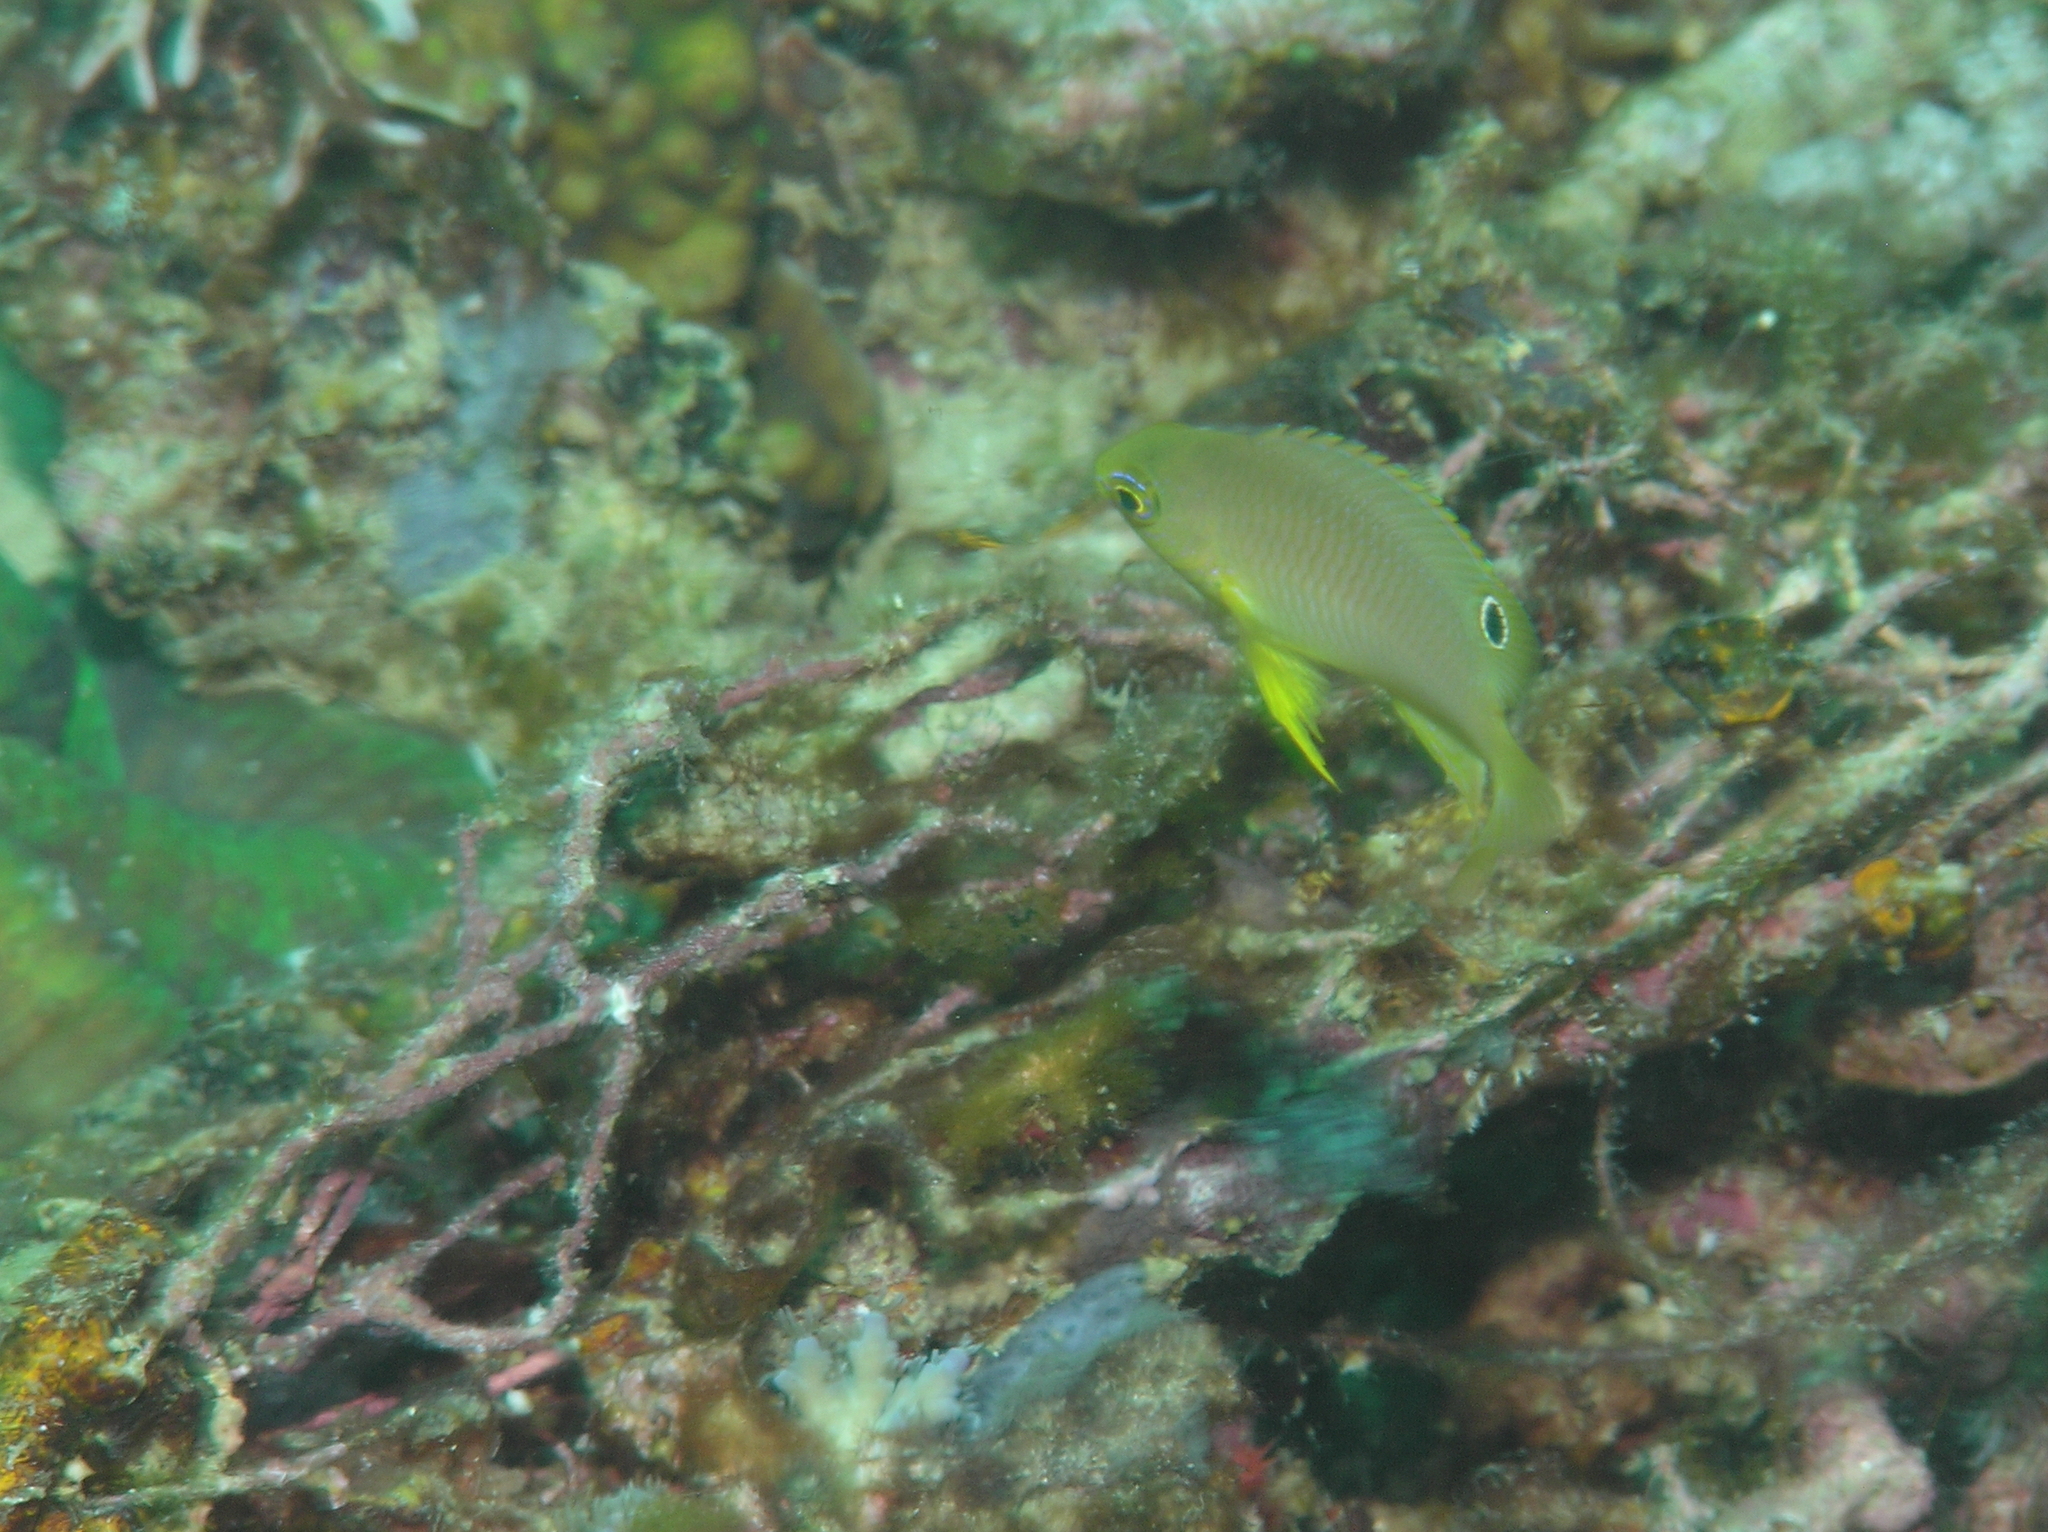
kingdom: Animalia
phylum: Chordata
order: Perciformes
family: Pomacentridae
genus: Pomacentrus
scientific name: Pomacentrus amboinensis
